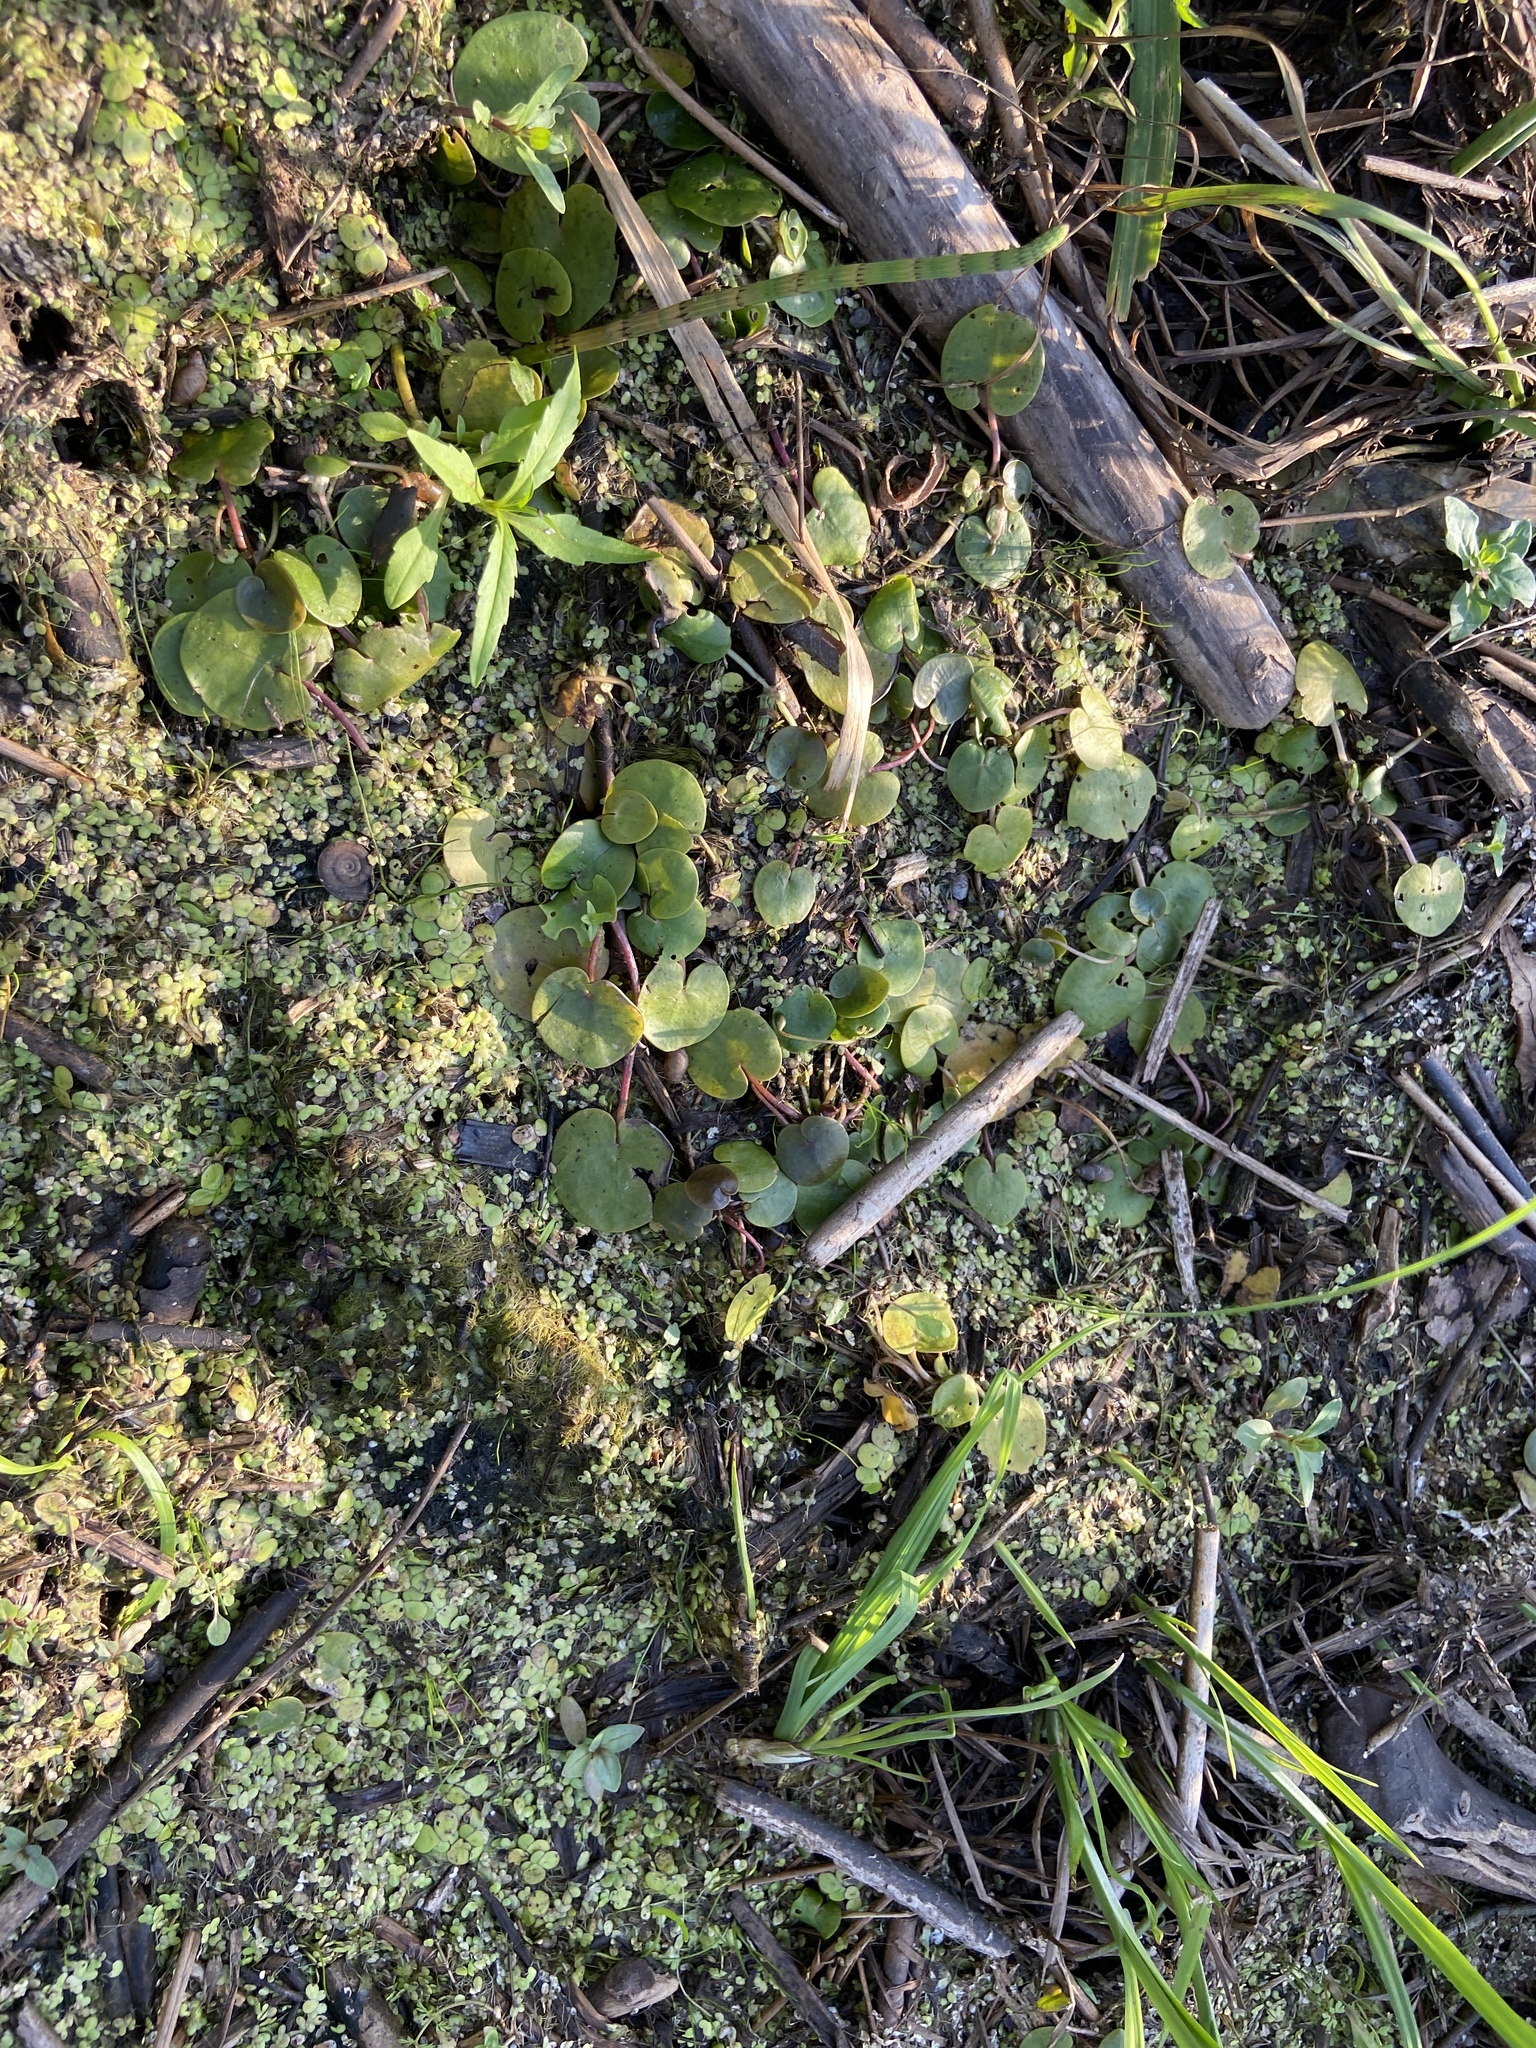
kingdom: Plantae
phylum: Tracheophyta
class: Liliopsida
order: Alismatales
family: Hydrocharitaceae
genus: Hydrocharis
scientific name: Hydrocharis morsus-ranae
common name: Frogbit
